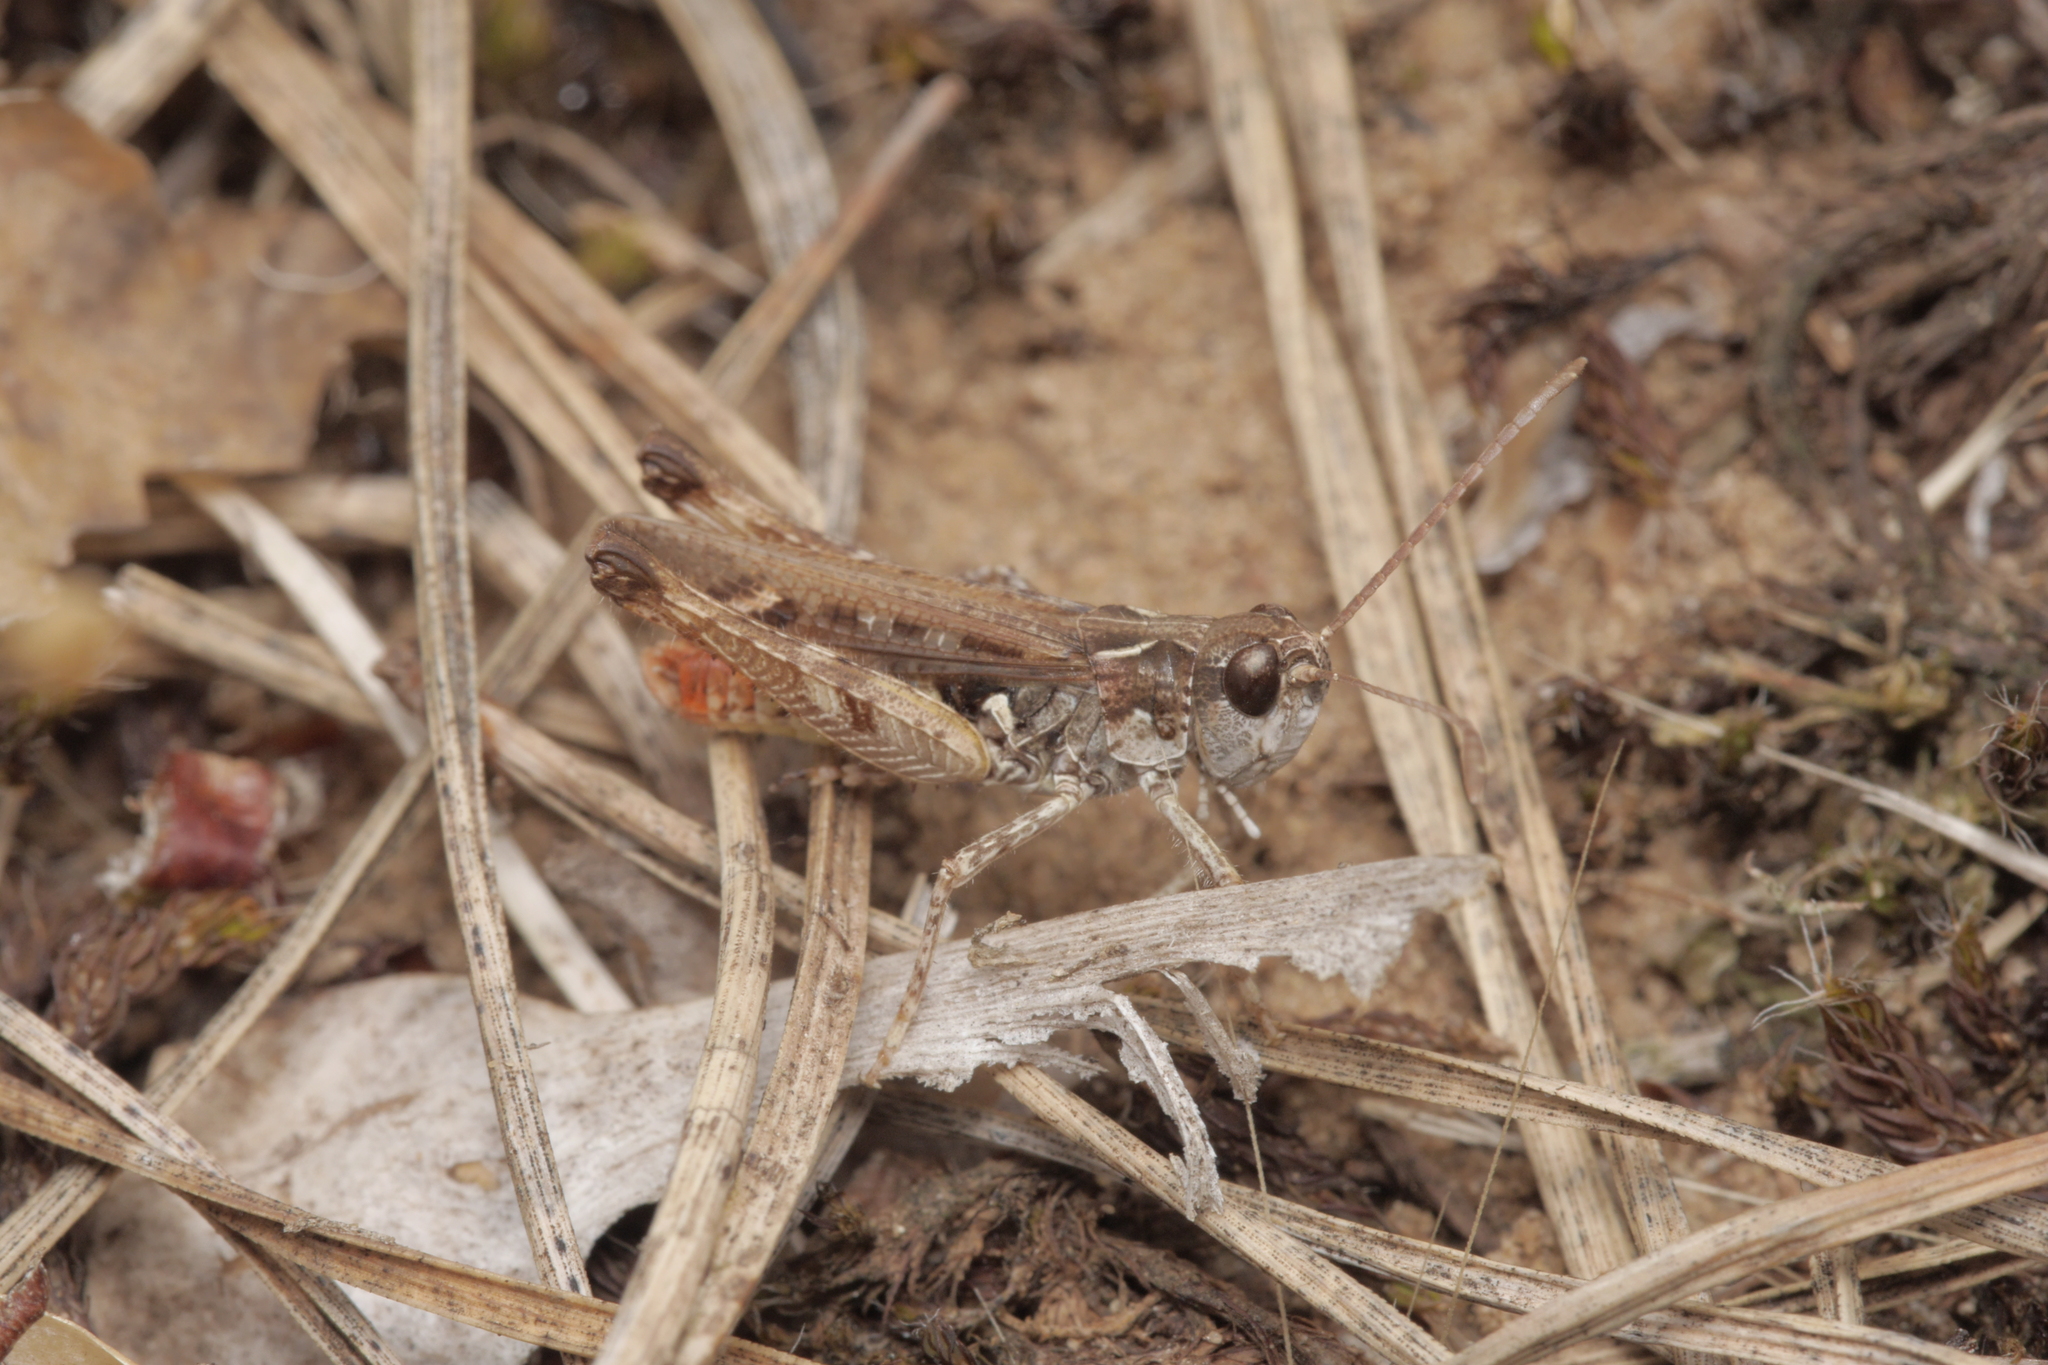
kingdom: Animalia
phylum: Arthropoda
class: Insecta
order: Orthoptera
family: Acrididae
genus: Myrmeleotettix
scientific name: Myrmeleotettix maculatus
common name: Mottled grasshopper
